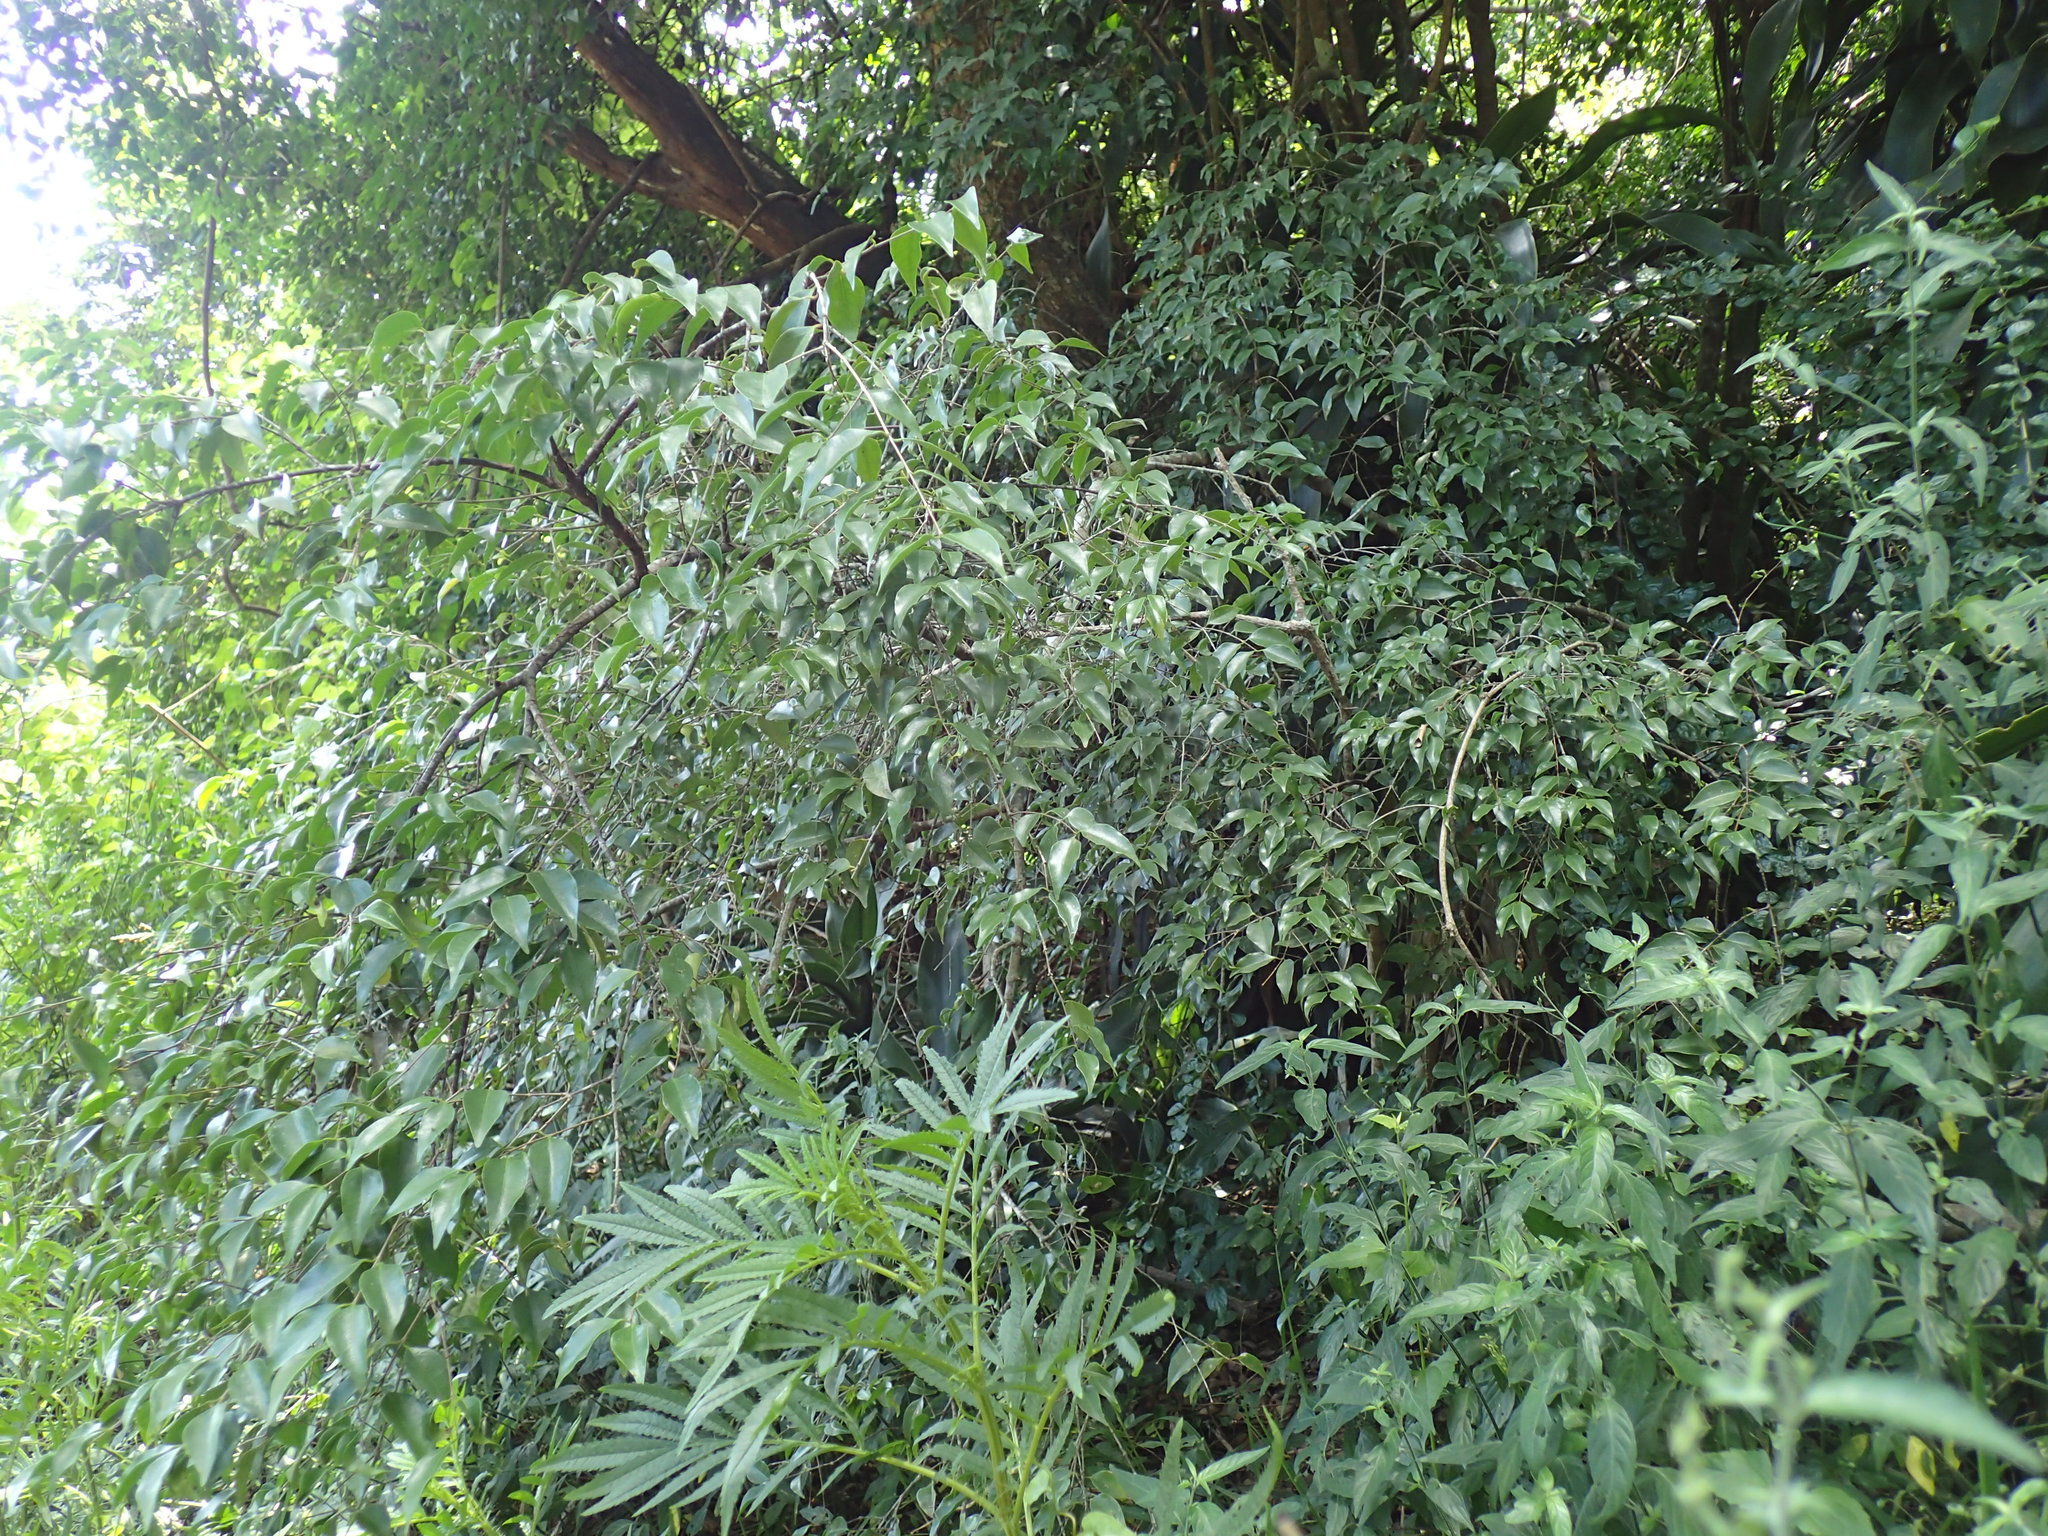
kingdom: Plantae
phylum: Tracheophyta
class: Magnoliopsida
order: Gentianales
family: Loganiaceae
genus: Strychnos
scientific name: Strychnos usambarensis
